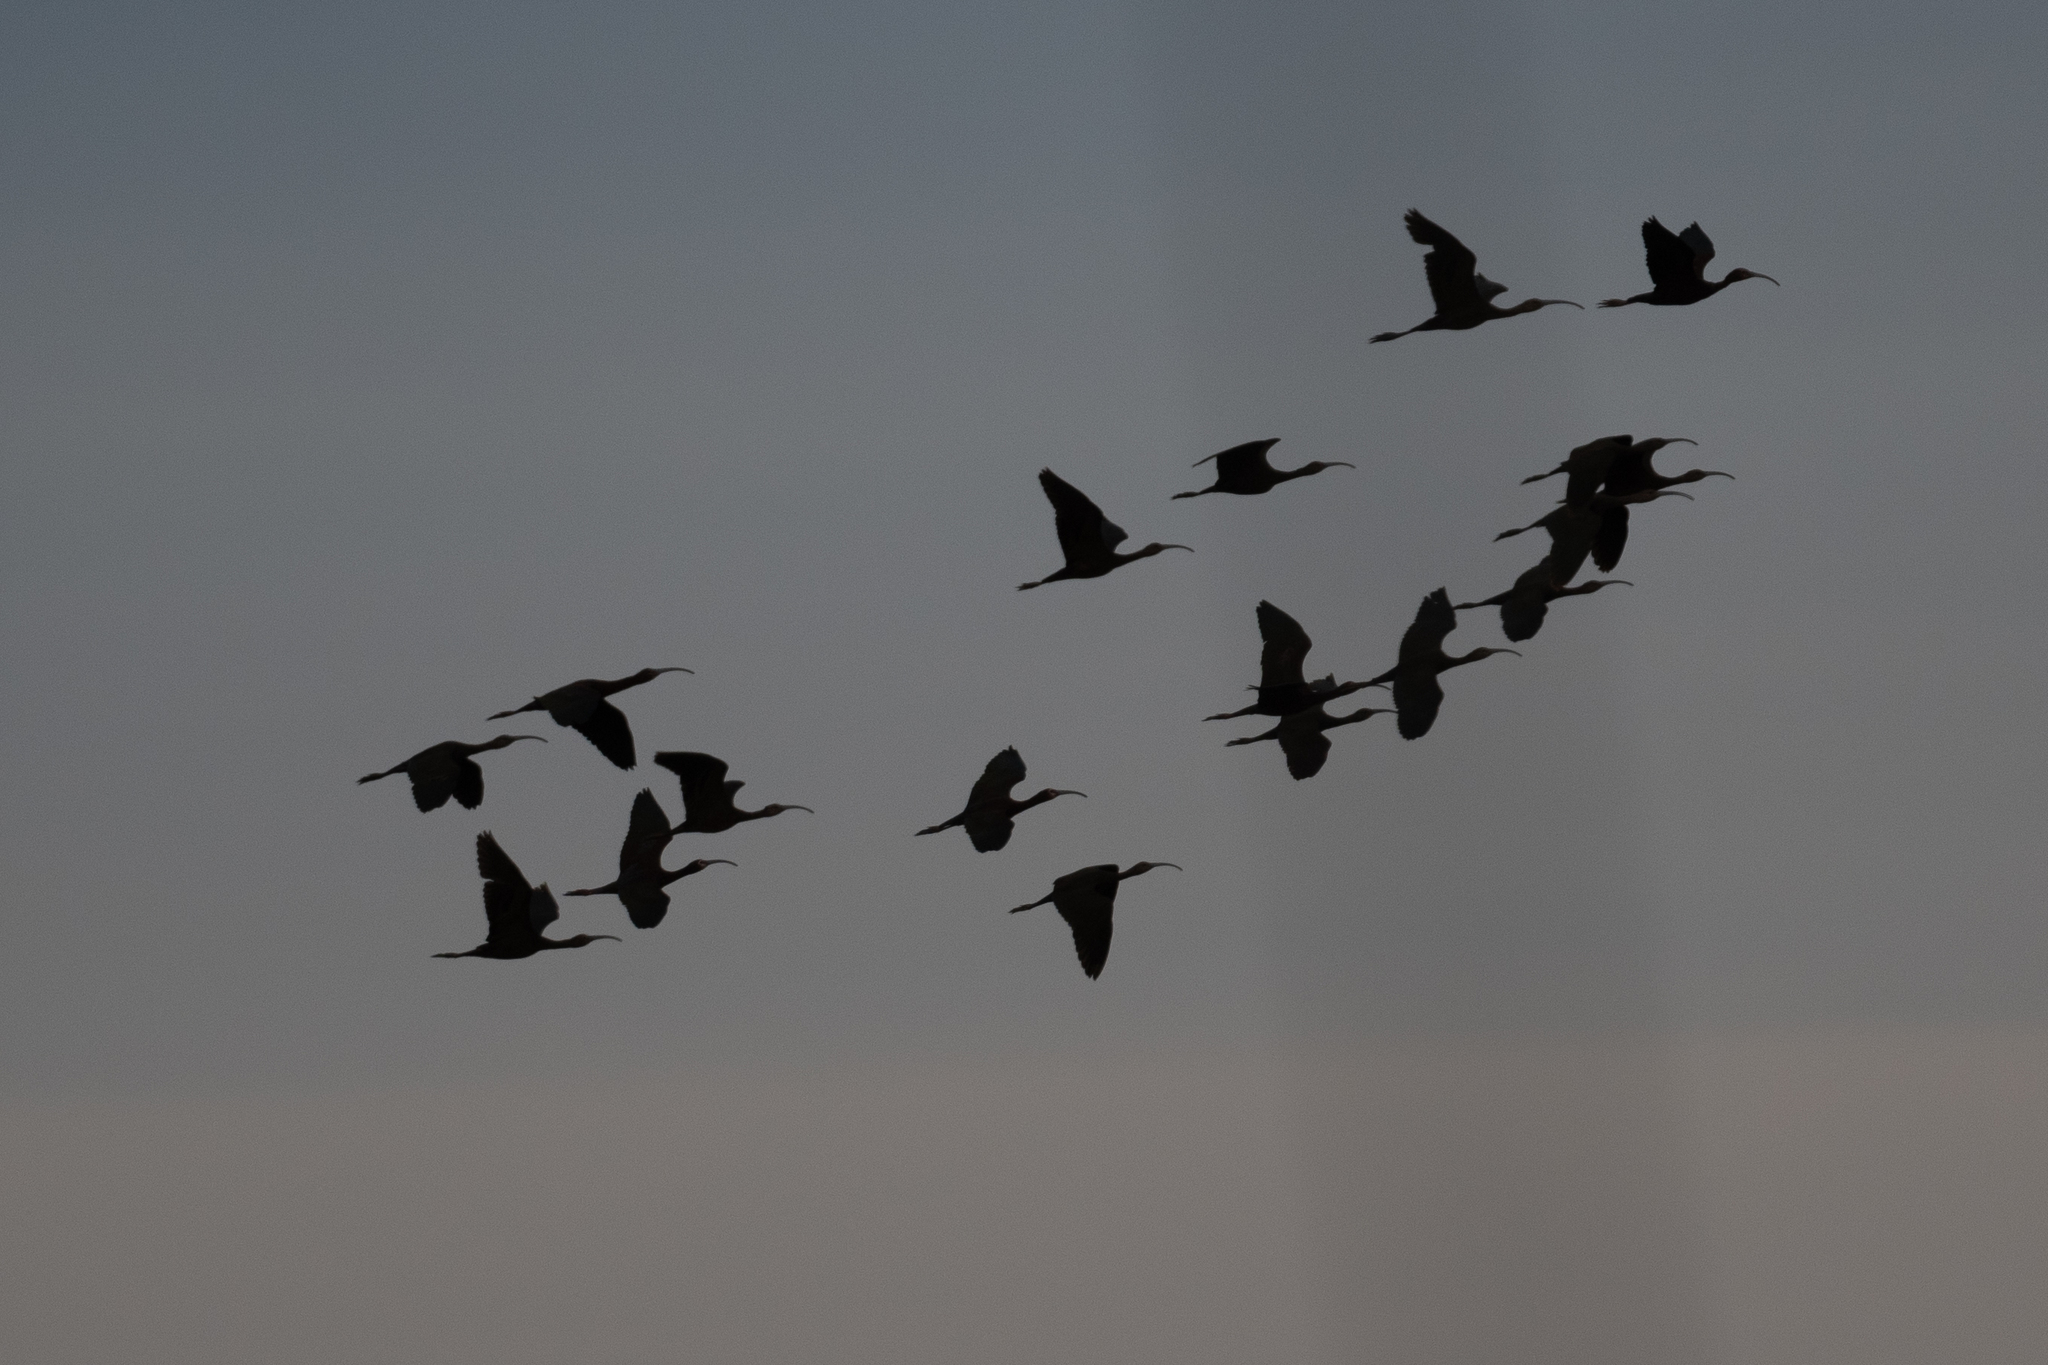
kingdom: Animalia
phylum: Chordata
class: Aves
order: Pelecaniformes
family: Threskiornithidae
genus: Plegadis
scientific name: Plegadis chihi
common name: White-faced ibis
